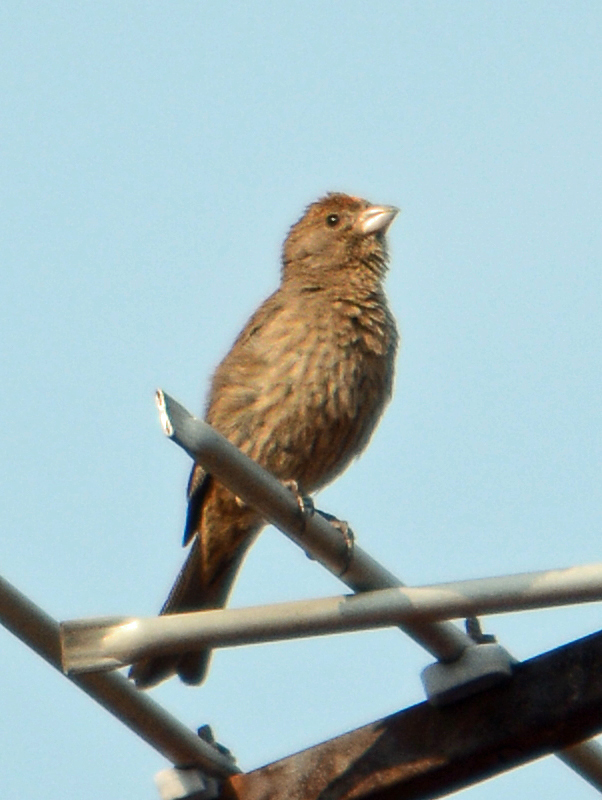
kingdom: Animalia
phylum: Chordata
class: Aves
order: Passeriformes
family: Fringillidae
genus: Haemorhous
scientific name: Haemorhous mexicanus
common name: House finch
